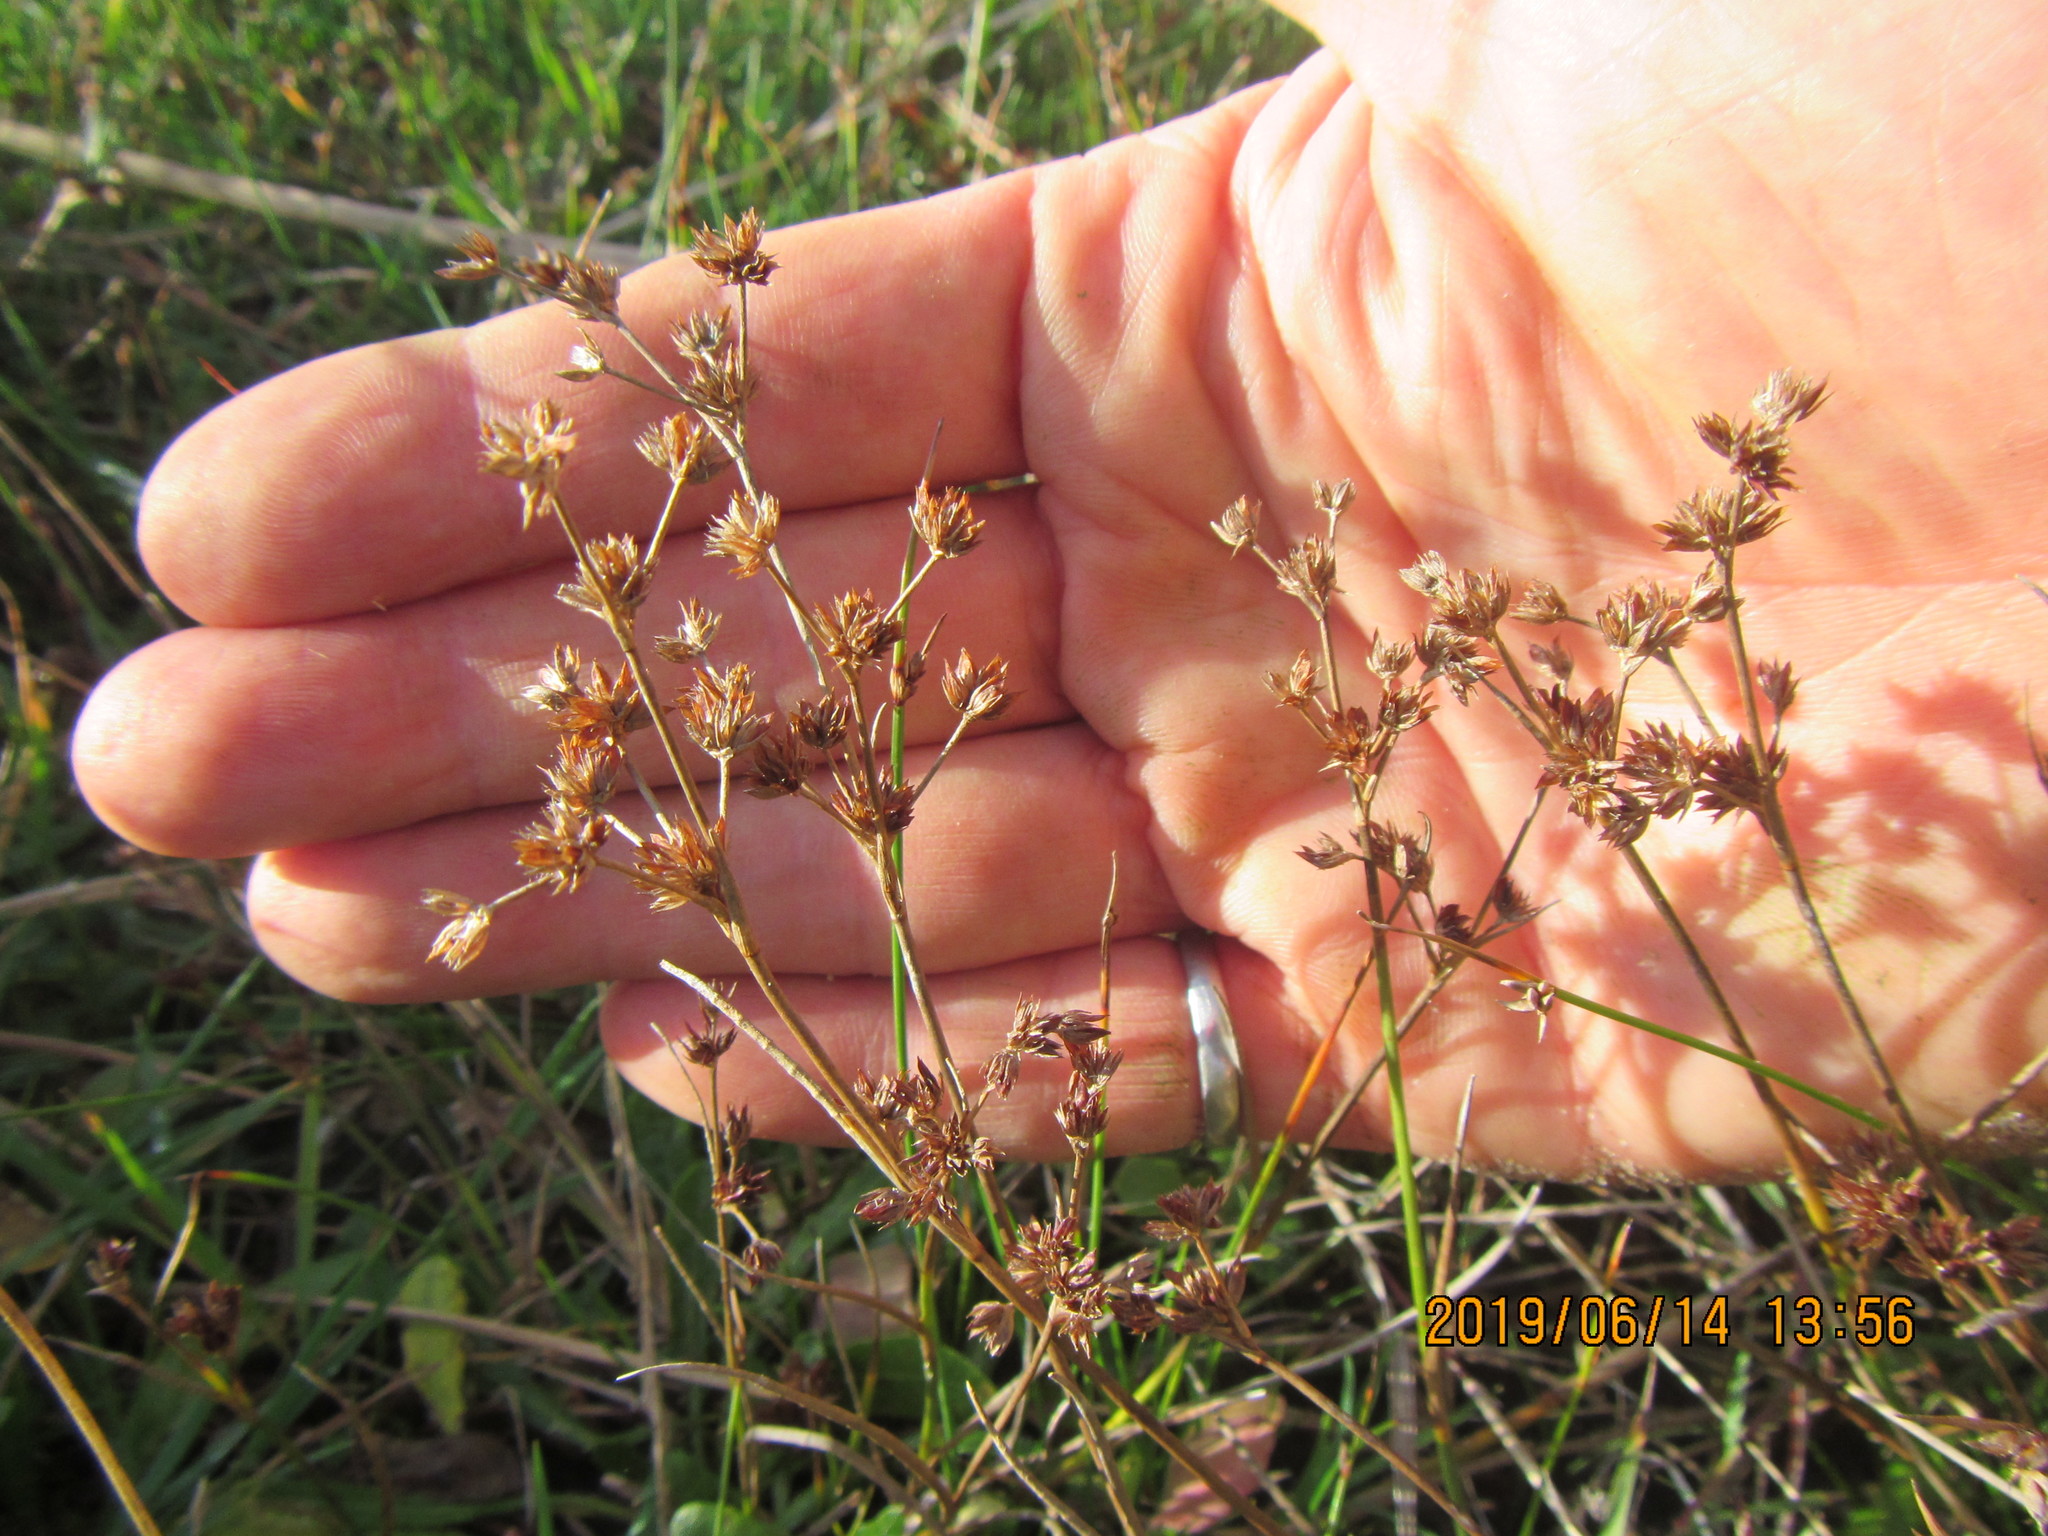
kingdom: Plantae
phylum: Tracheophyta
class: Liliopsida
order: Poales
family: Juncaceae
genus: Juncus
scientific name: Juncus articulatus
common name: Jointed rush
